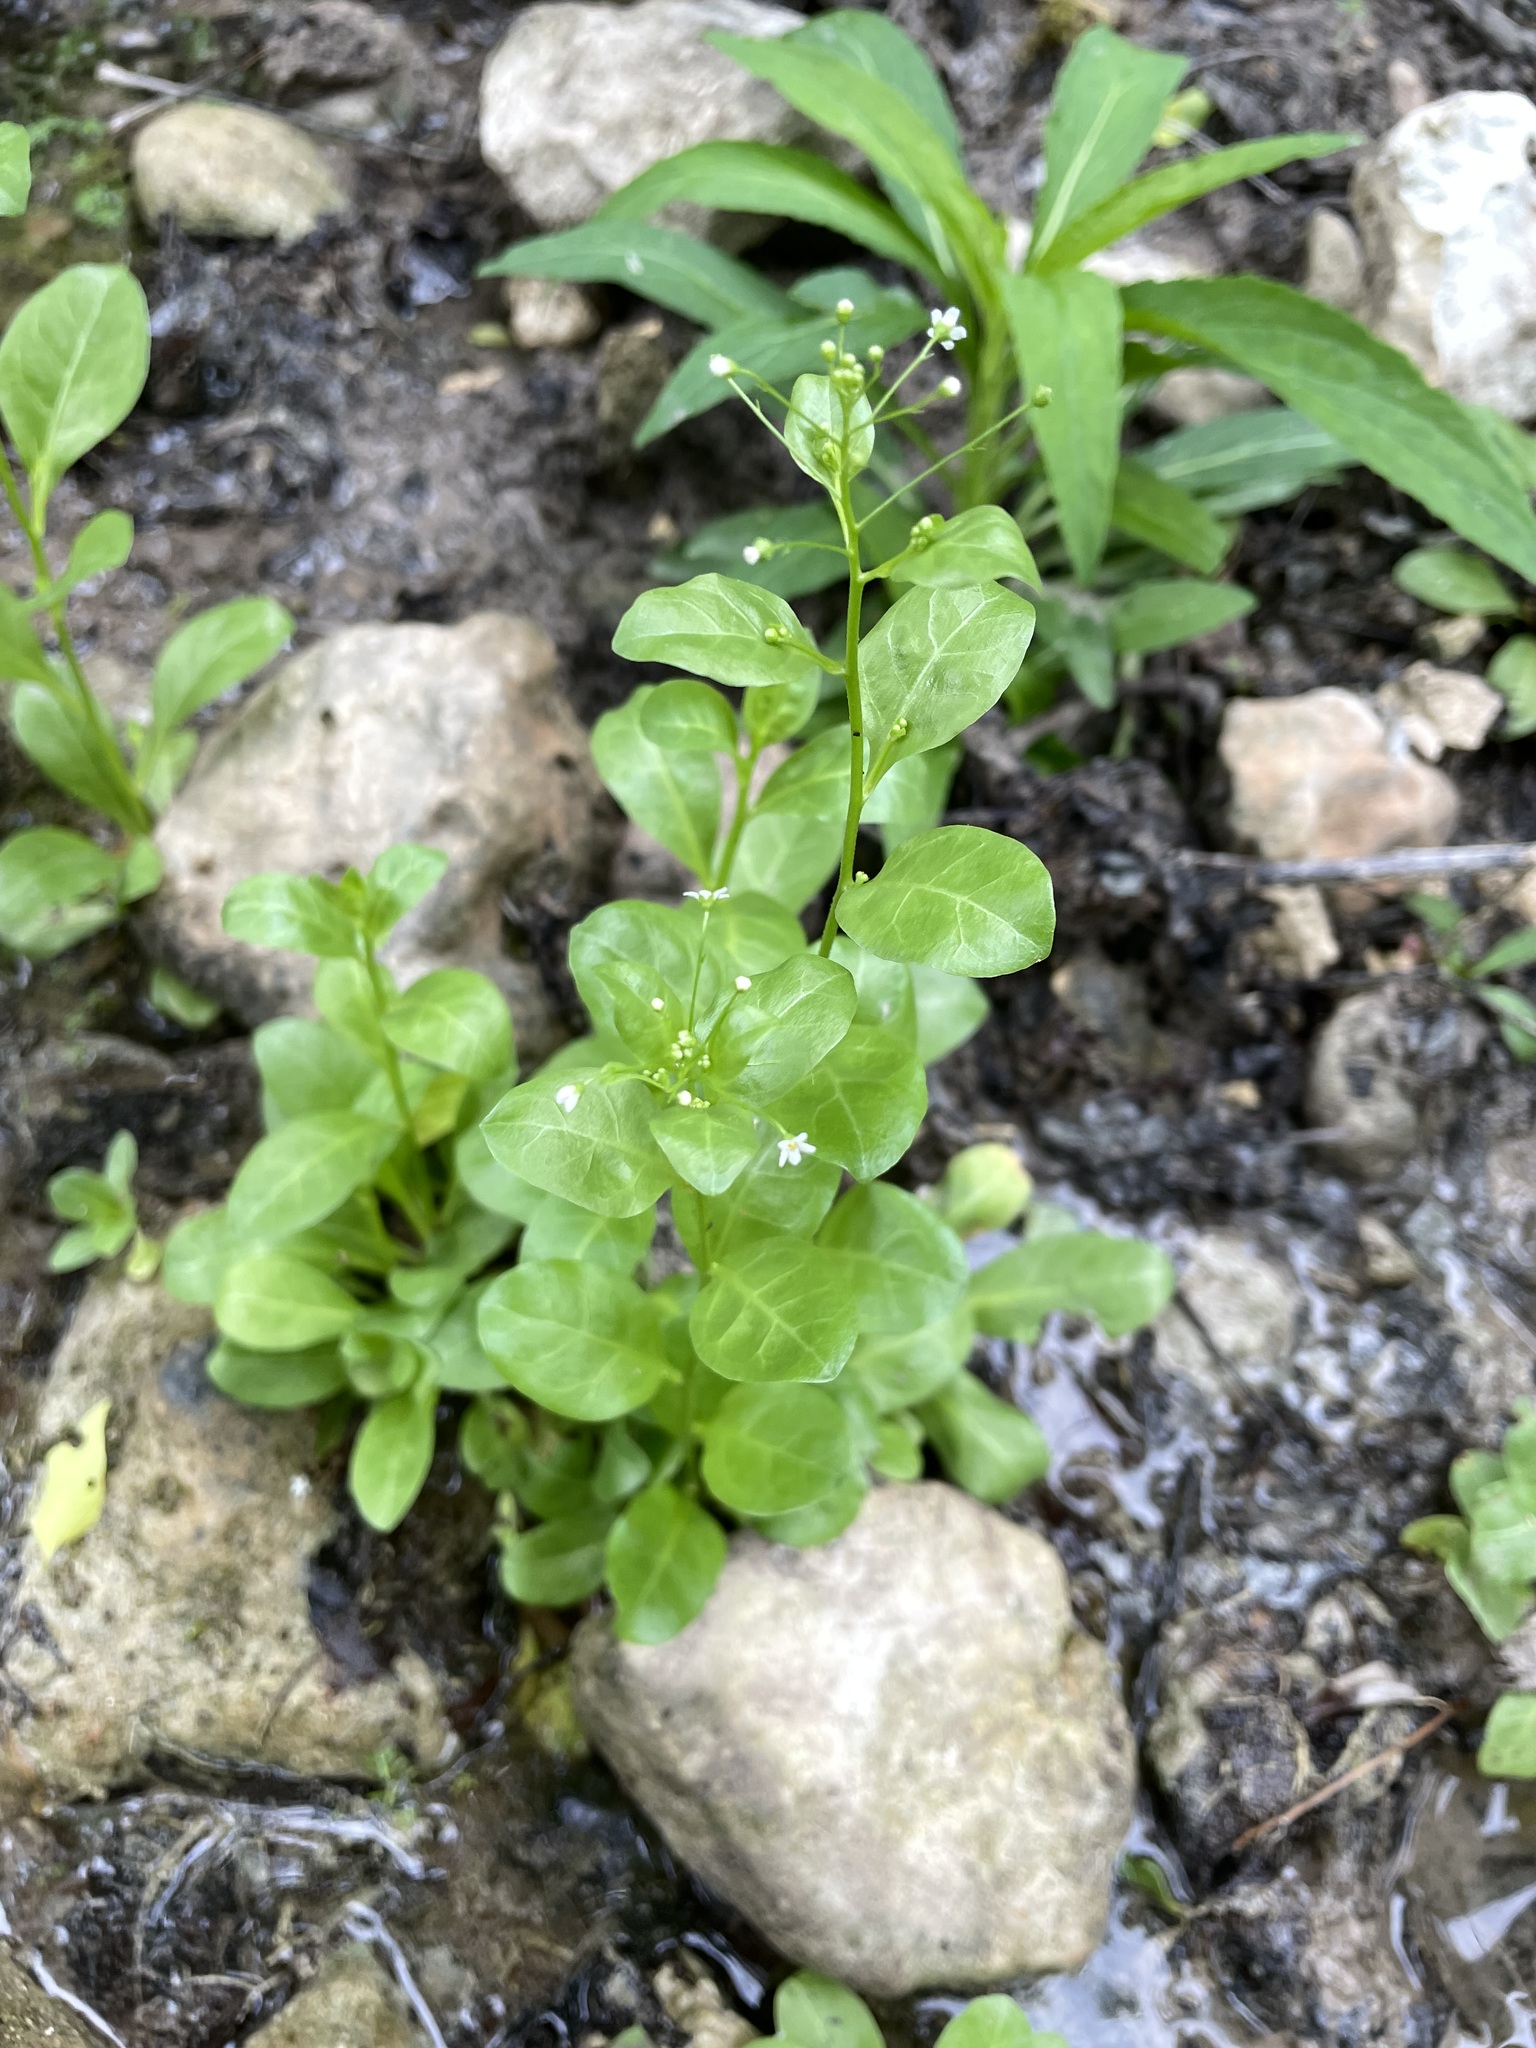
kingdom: Plantae
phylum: Tracheophyta
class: Magnoliopsida
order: Ericales
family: Primulaceae
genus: Samolus
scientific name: Samolus parviflorus
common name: False water pimpernel
